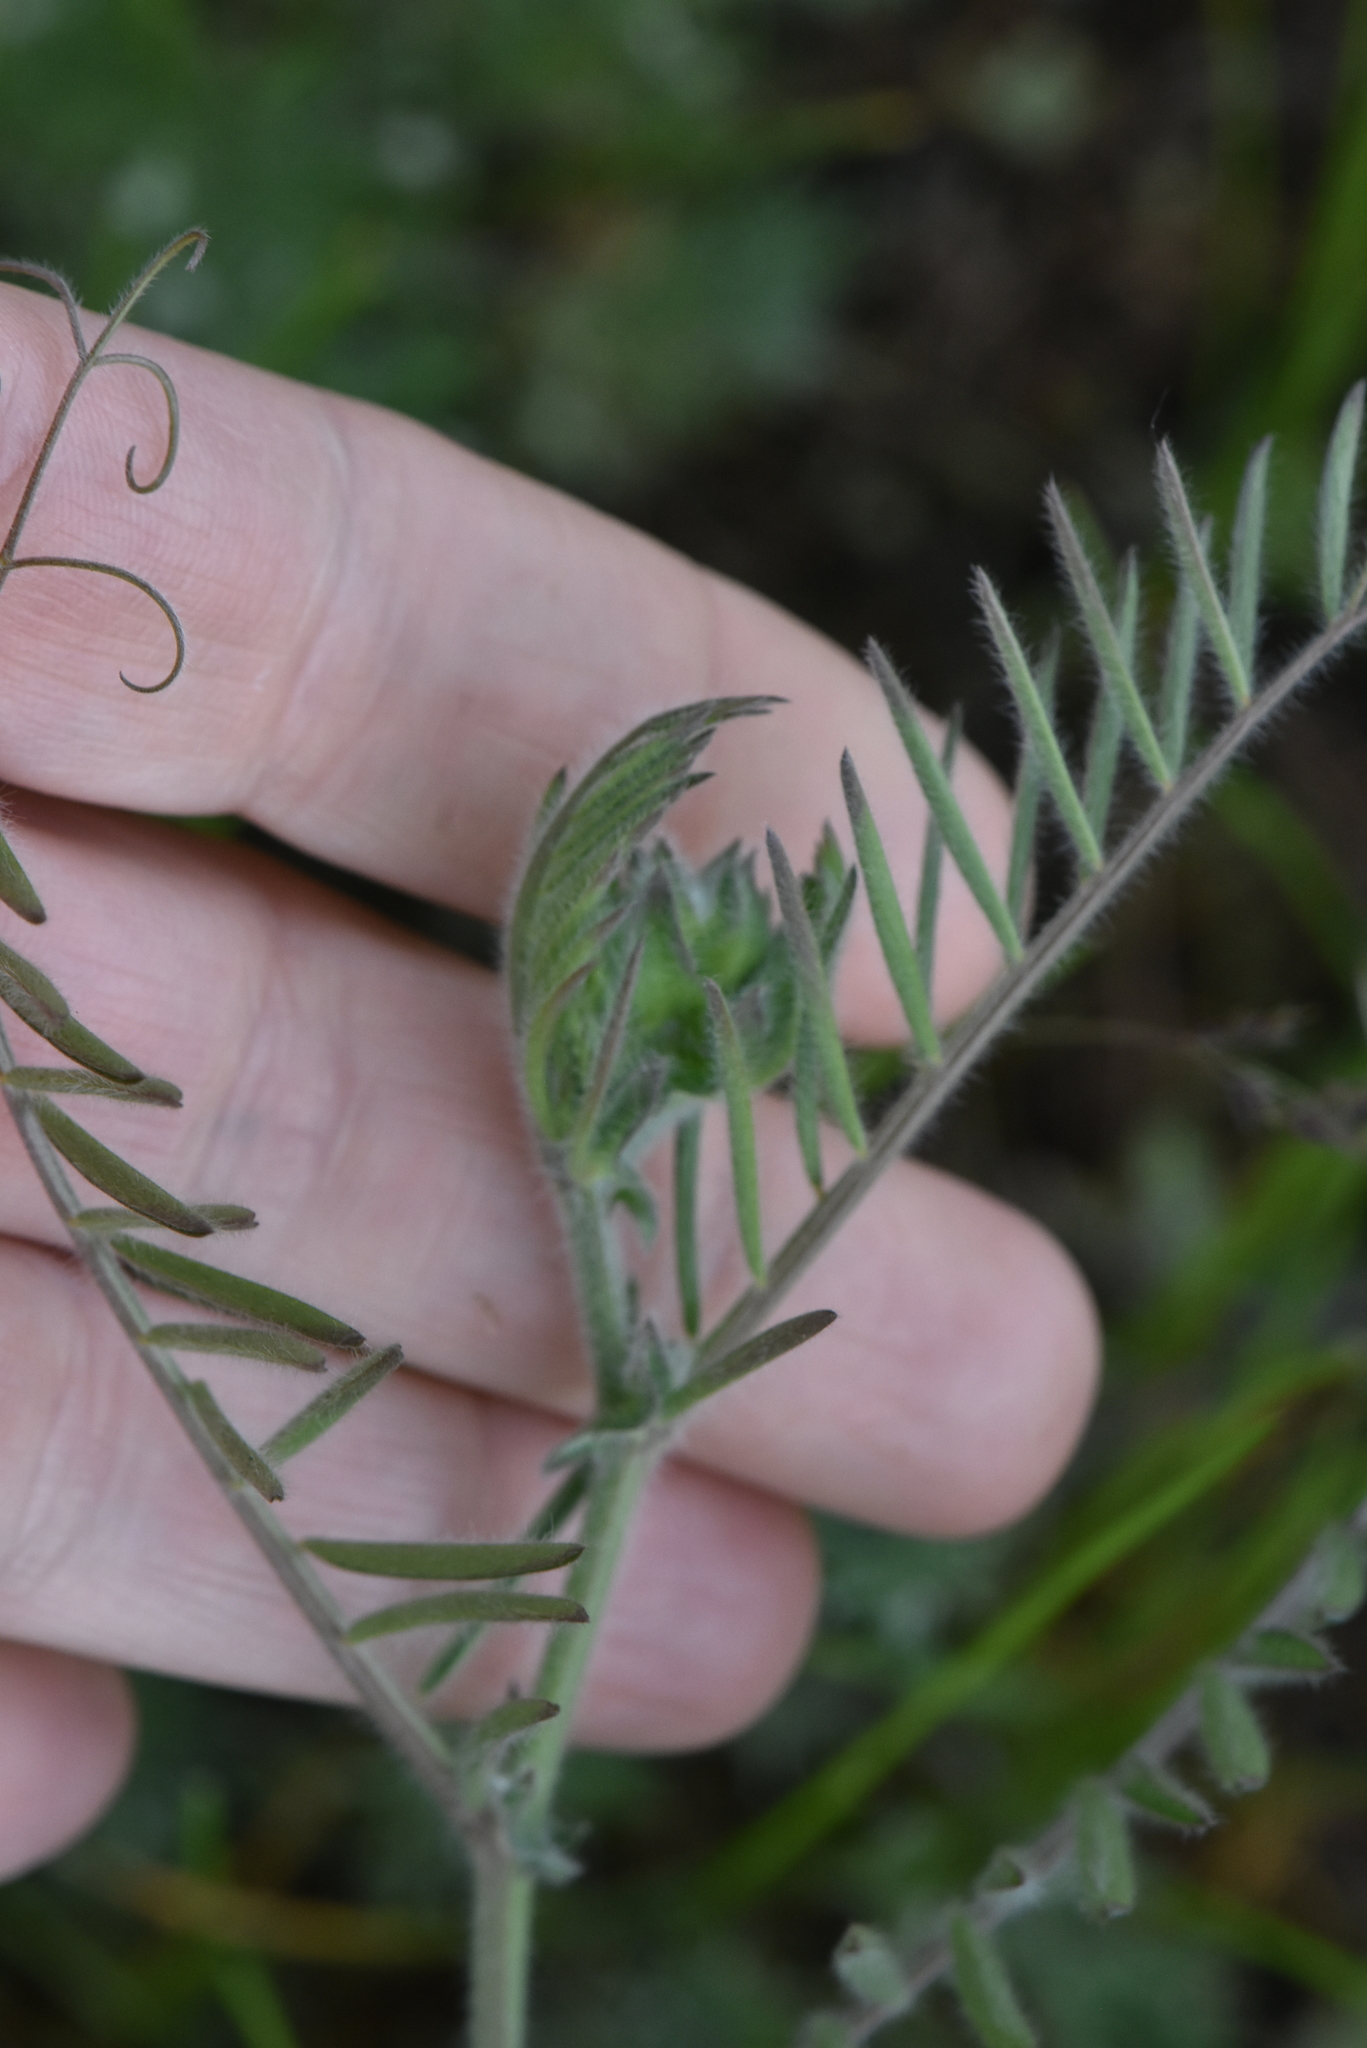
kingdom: Plantae
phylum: Tracheophyta
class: Magnoliopsida
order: Fabales
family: Fabaceae
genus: Vicia
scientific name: Vicia villosa
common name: Fodder vetch
